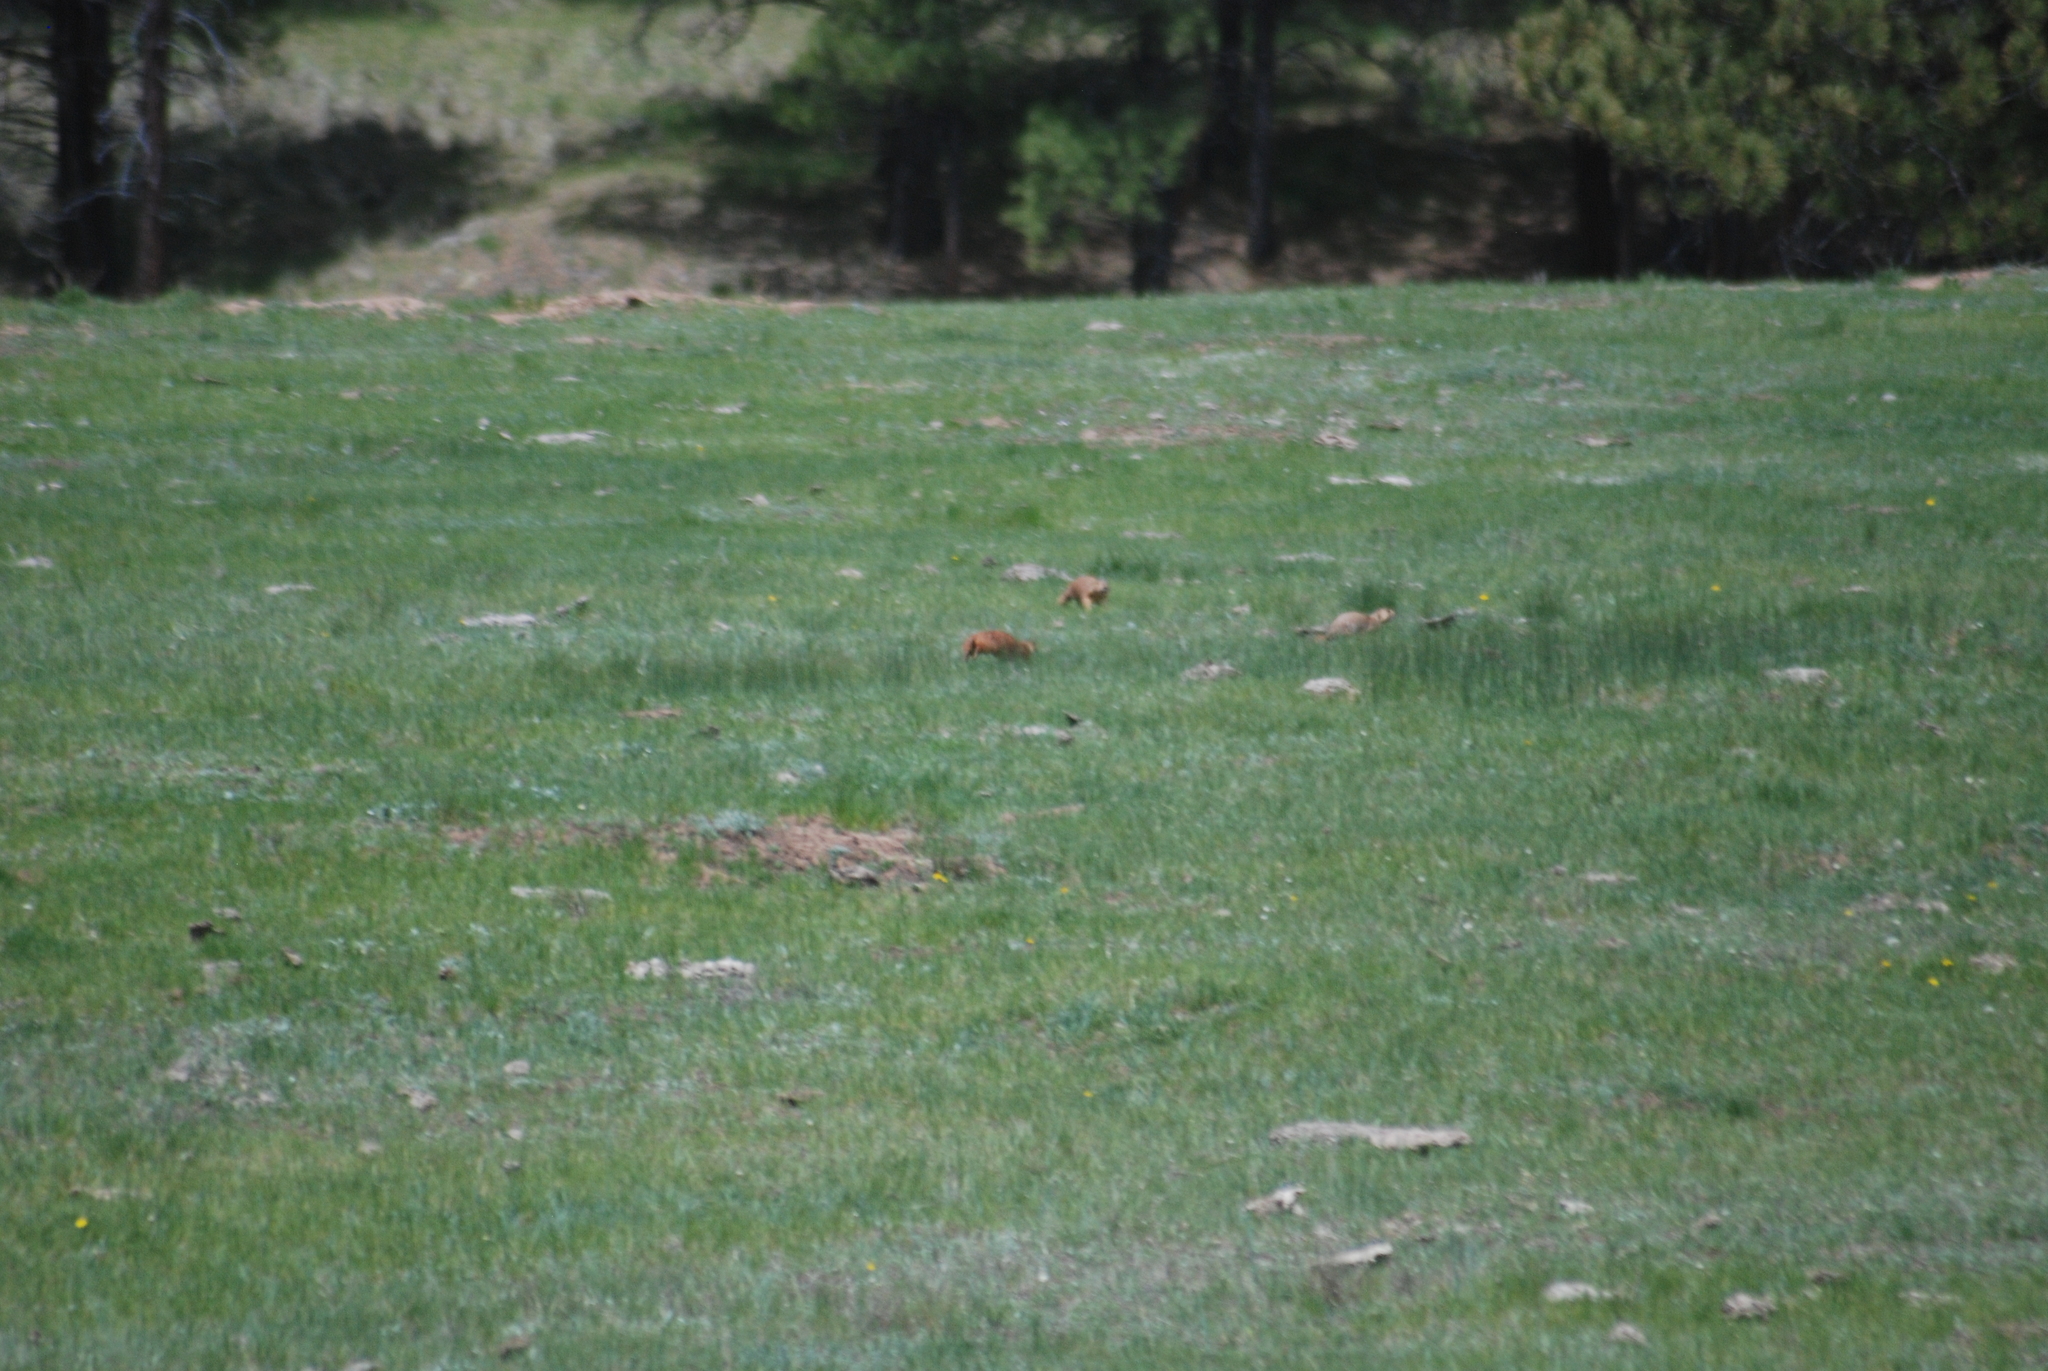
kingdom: Animalia
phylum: Chordata
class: Mammalia
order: Rodentia
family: Sciuridae
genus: Cynomys
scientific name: Cynomys gunnisoni
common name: Gunnison's prairie dog
